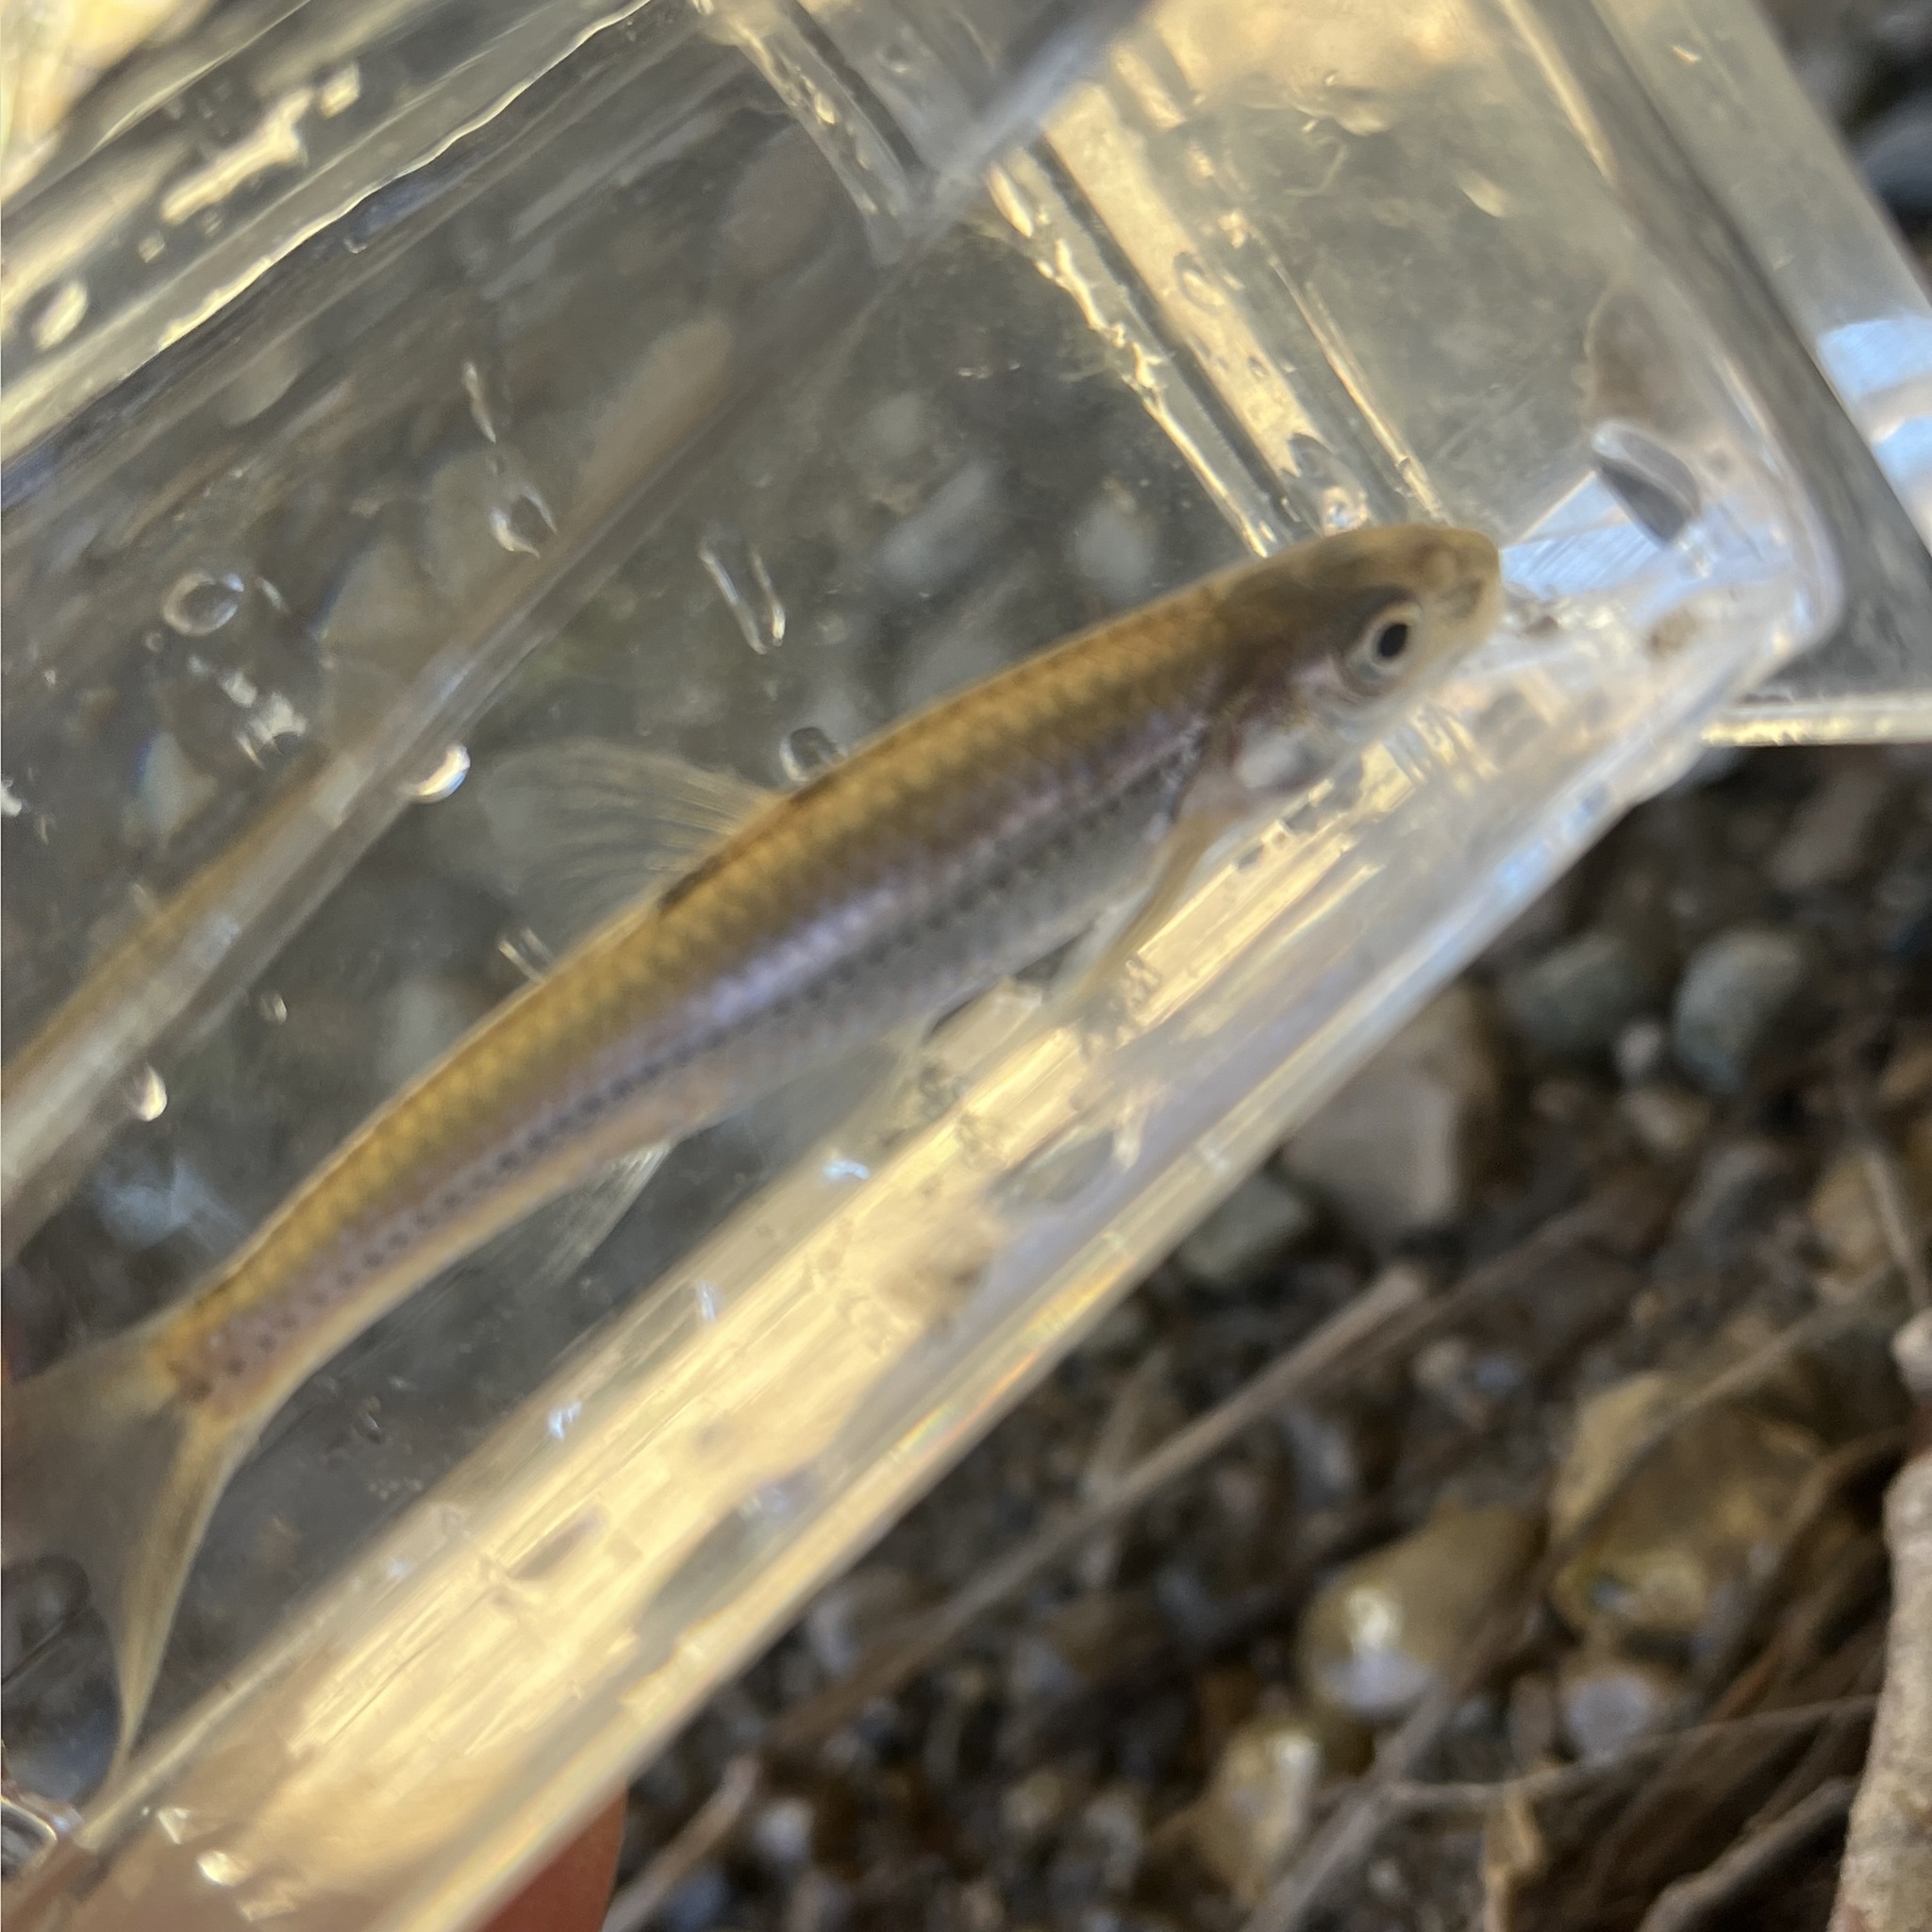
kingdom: Animalia
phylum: Chordata
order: Cypriniformes
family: Cyprinidae
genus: Notropis
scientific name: Notropis
